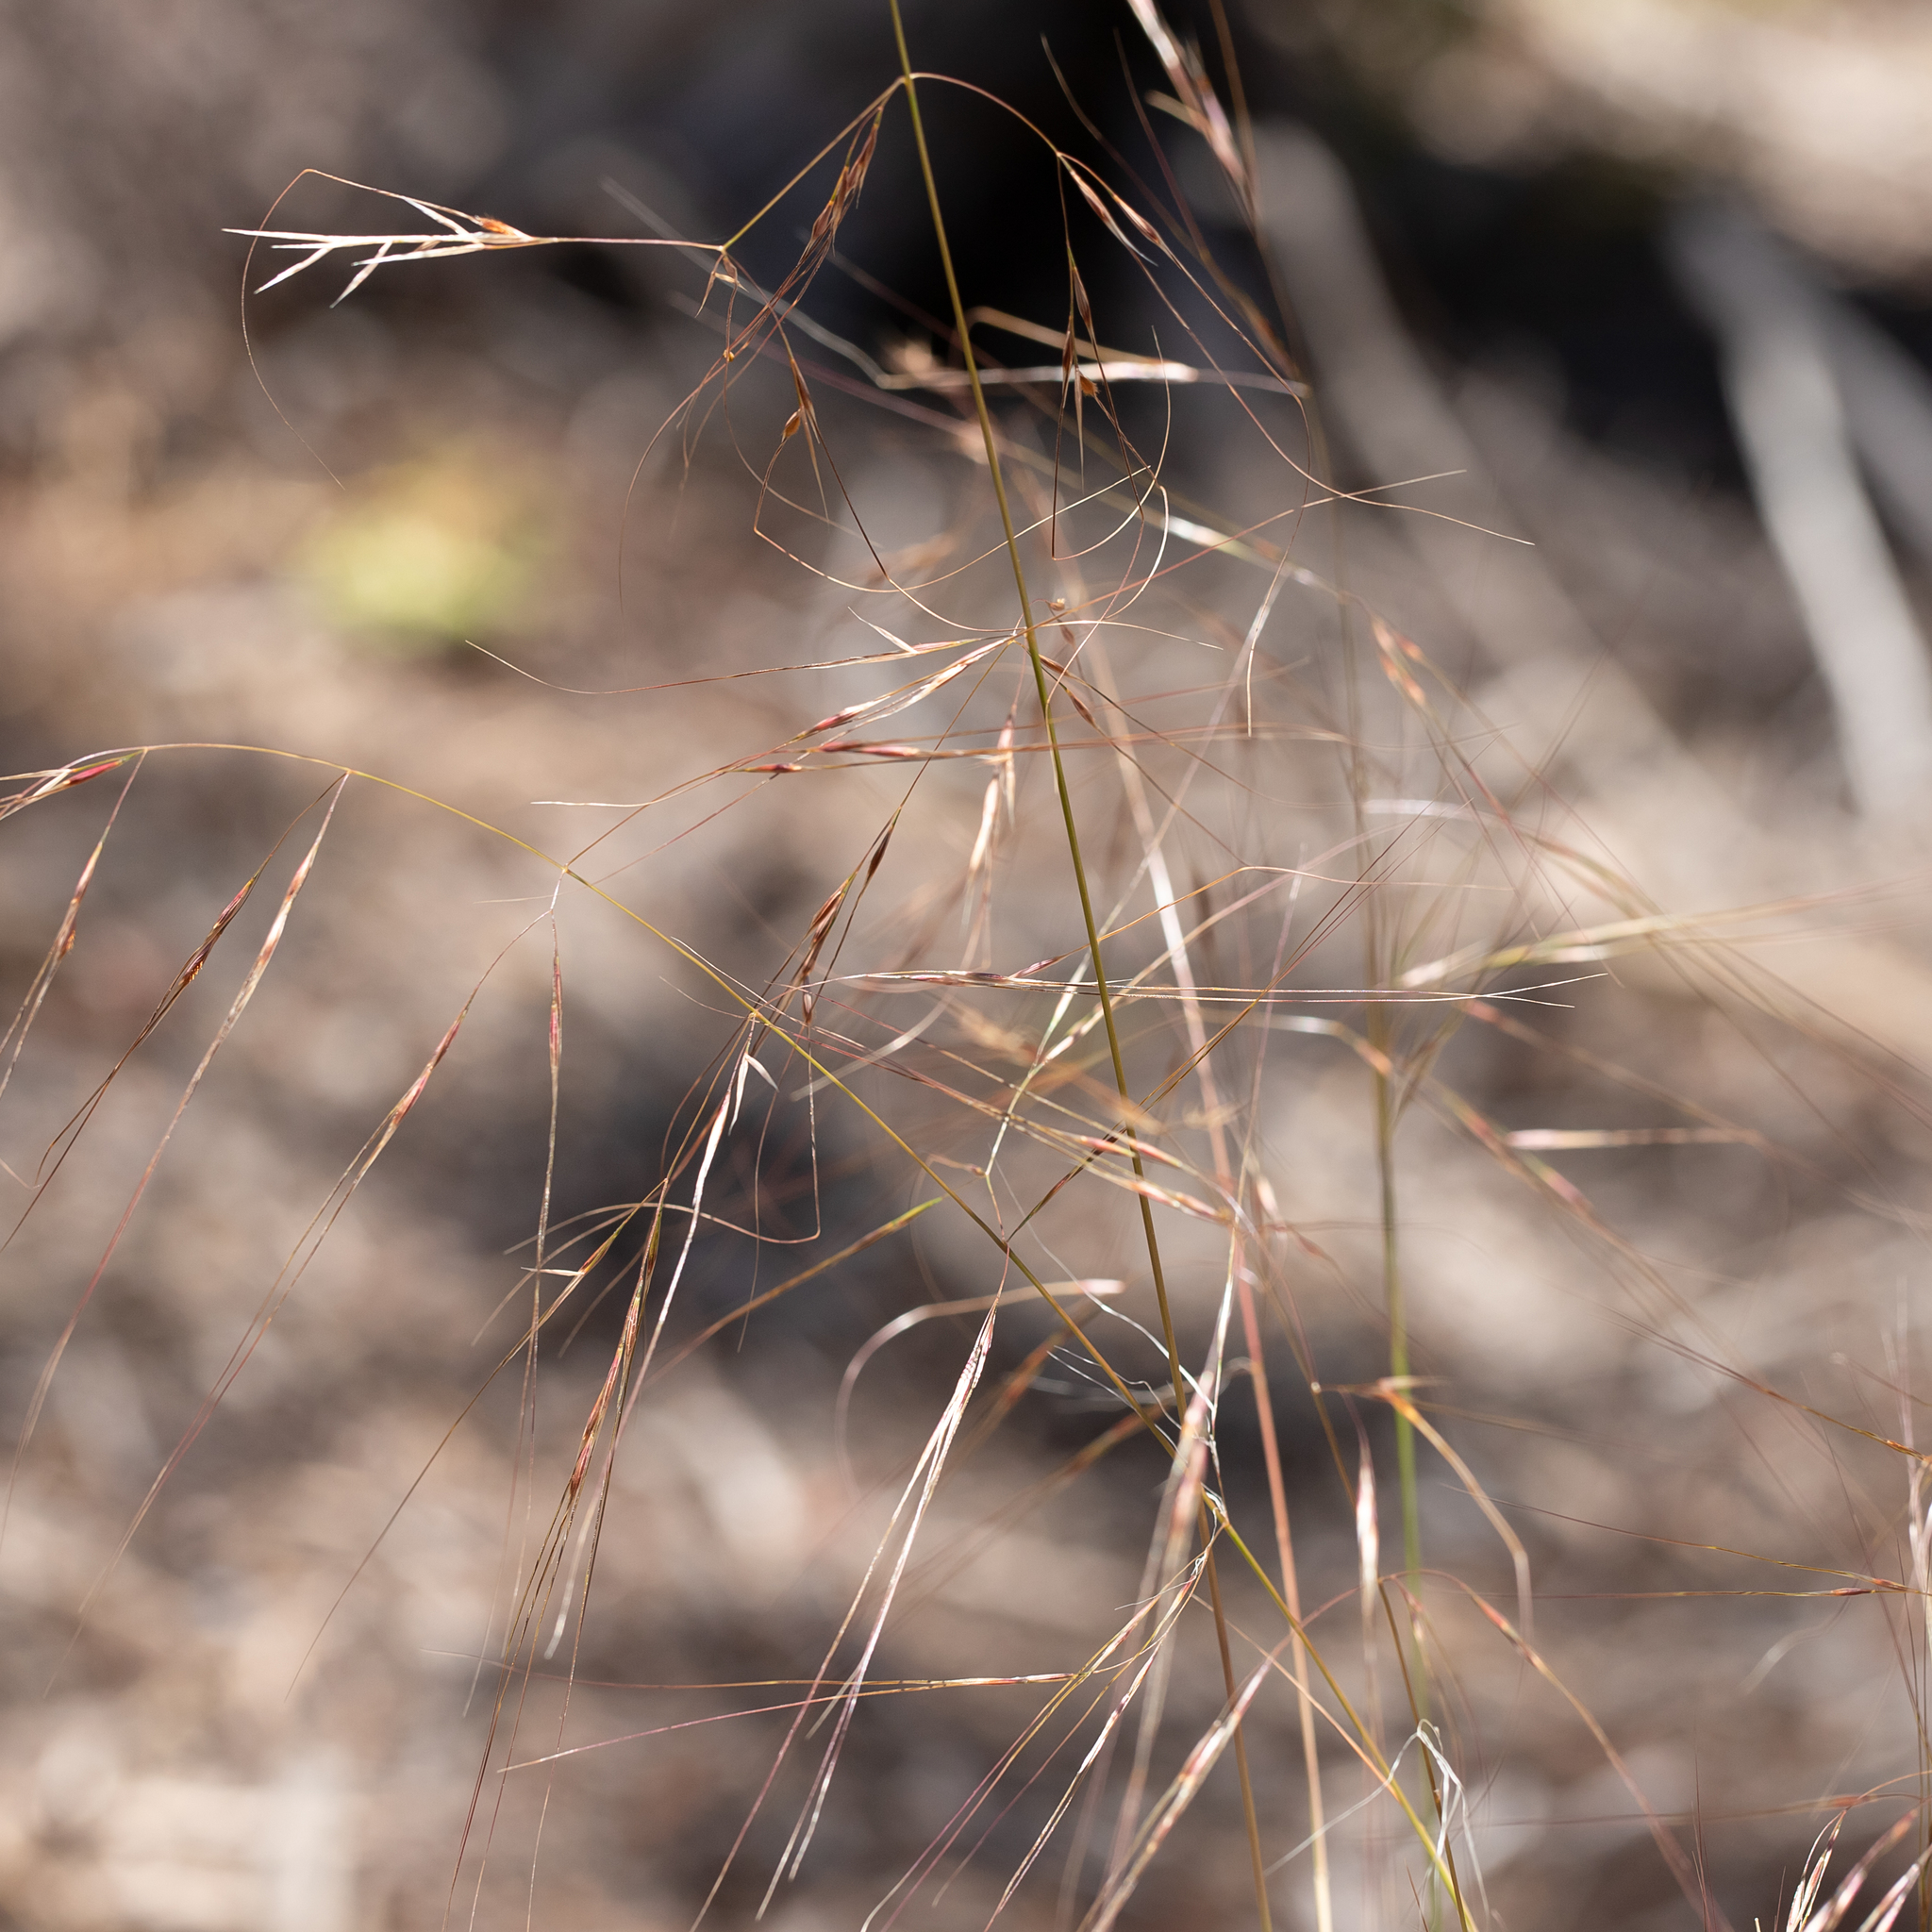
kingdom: Plantae
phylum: Tracheophyta
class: Liliopsida
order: Poales
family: Poaceae
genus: Austrostipa
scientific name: Austrostipa platychaeta
